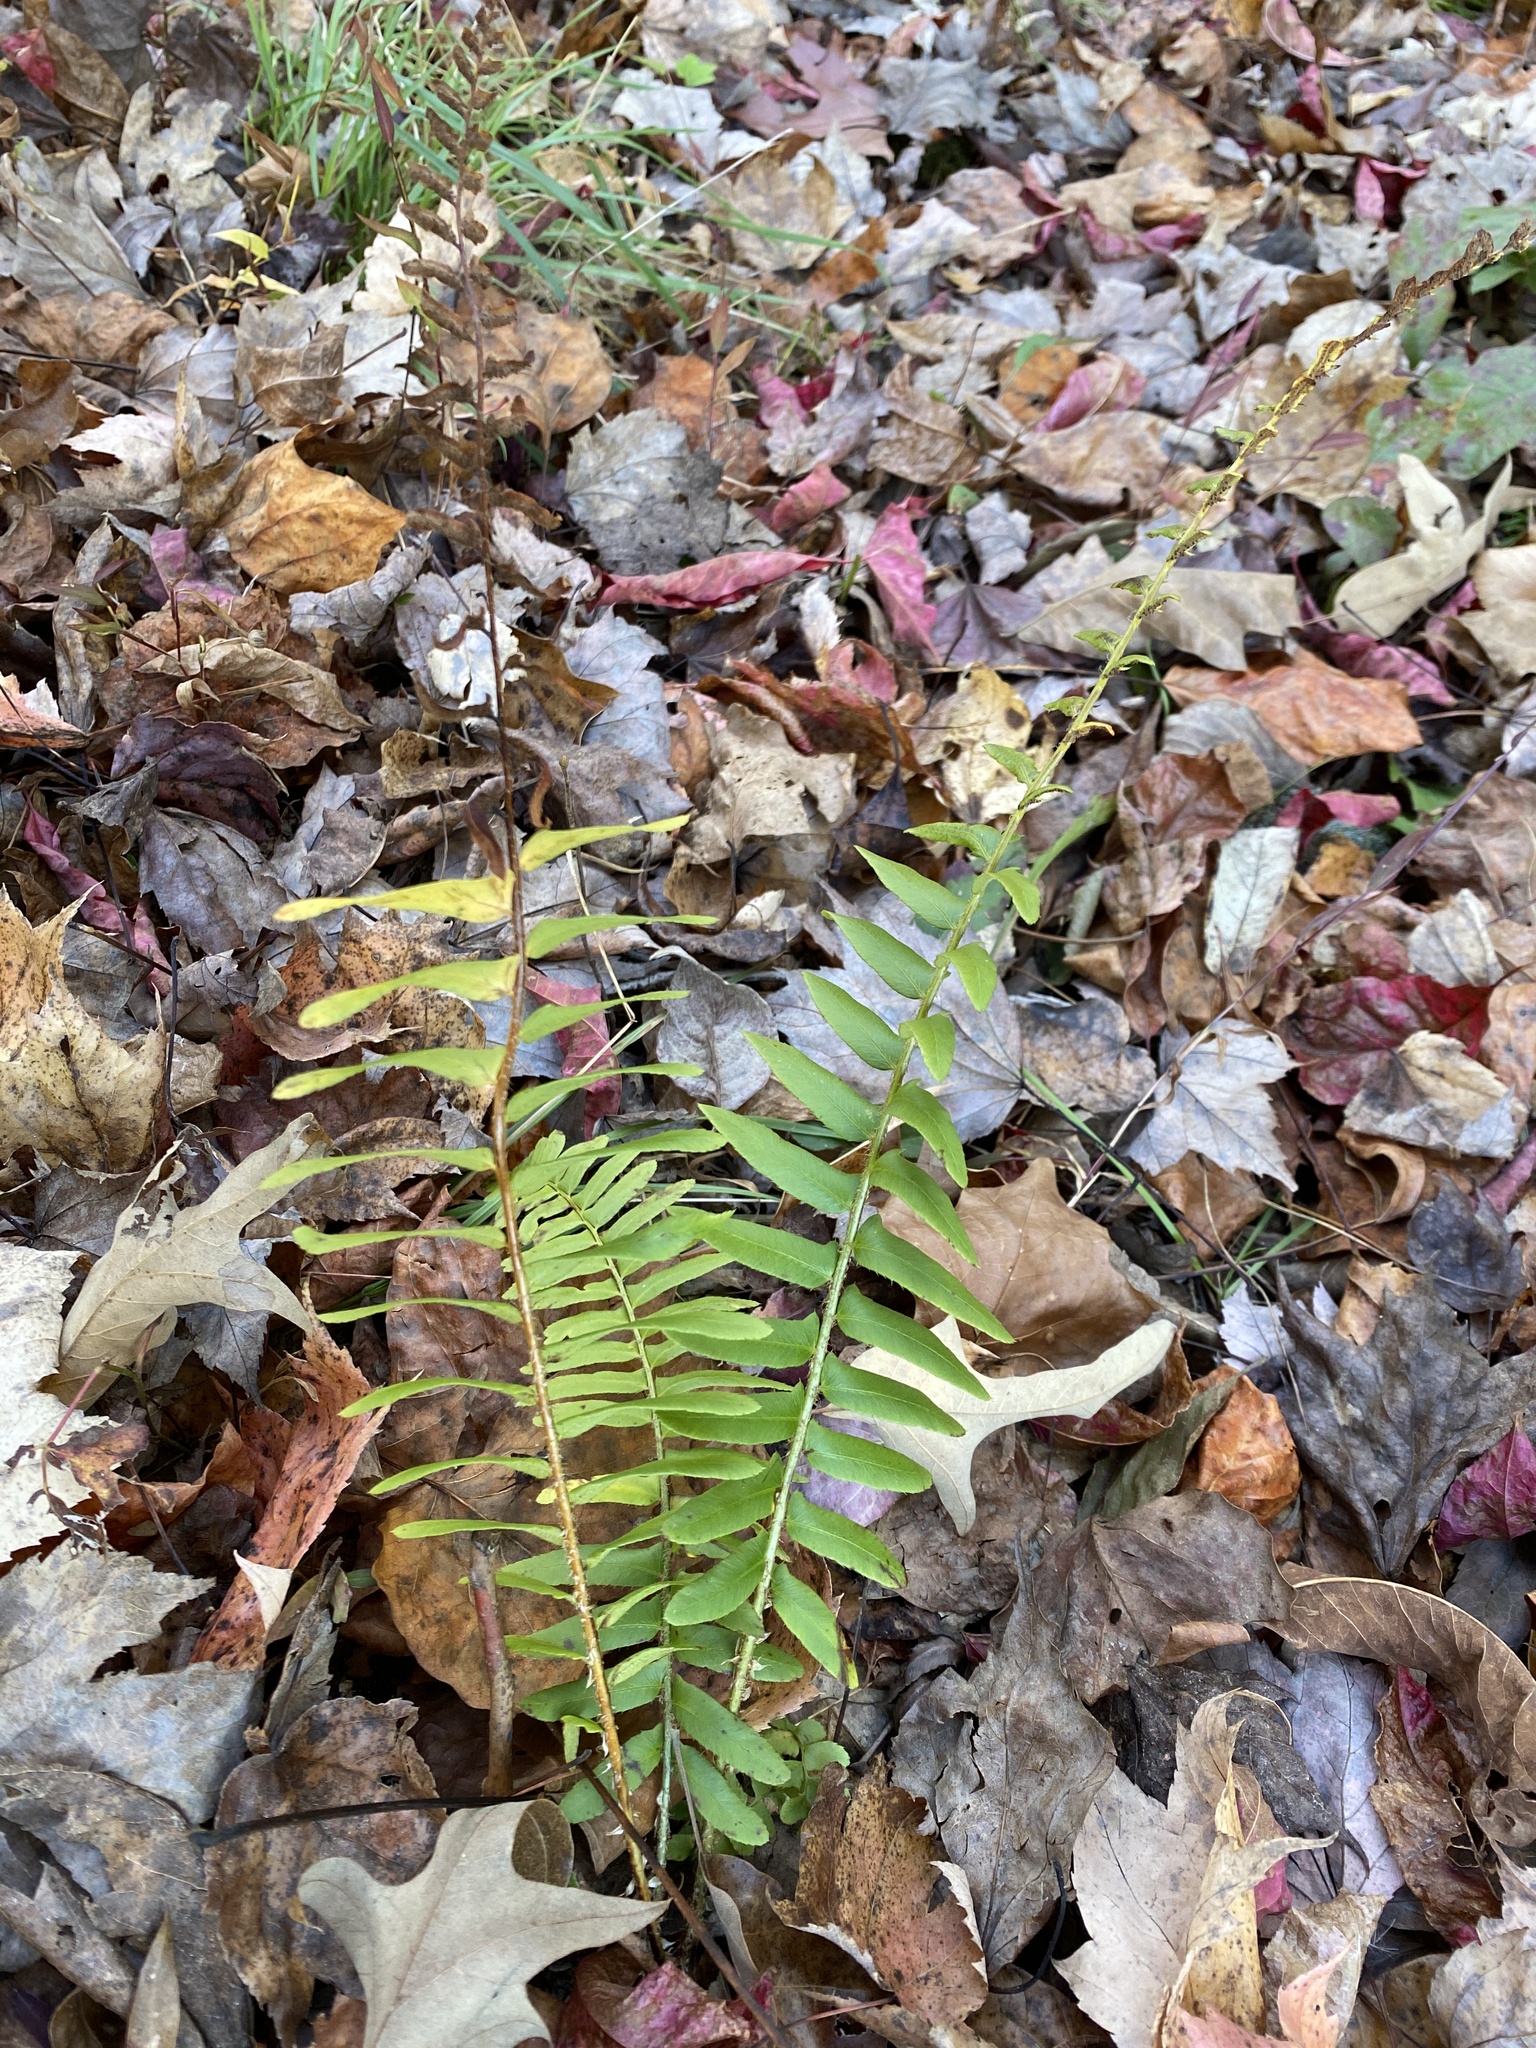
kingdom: Plantae
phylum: Tracheophyta
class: Polypodiopsida
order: Polypodiales
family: Dryopteridaceae
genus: Polystichum
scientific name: Polystichum acrostichoides
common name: Christmas fern
